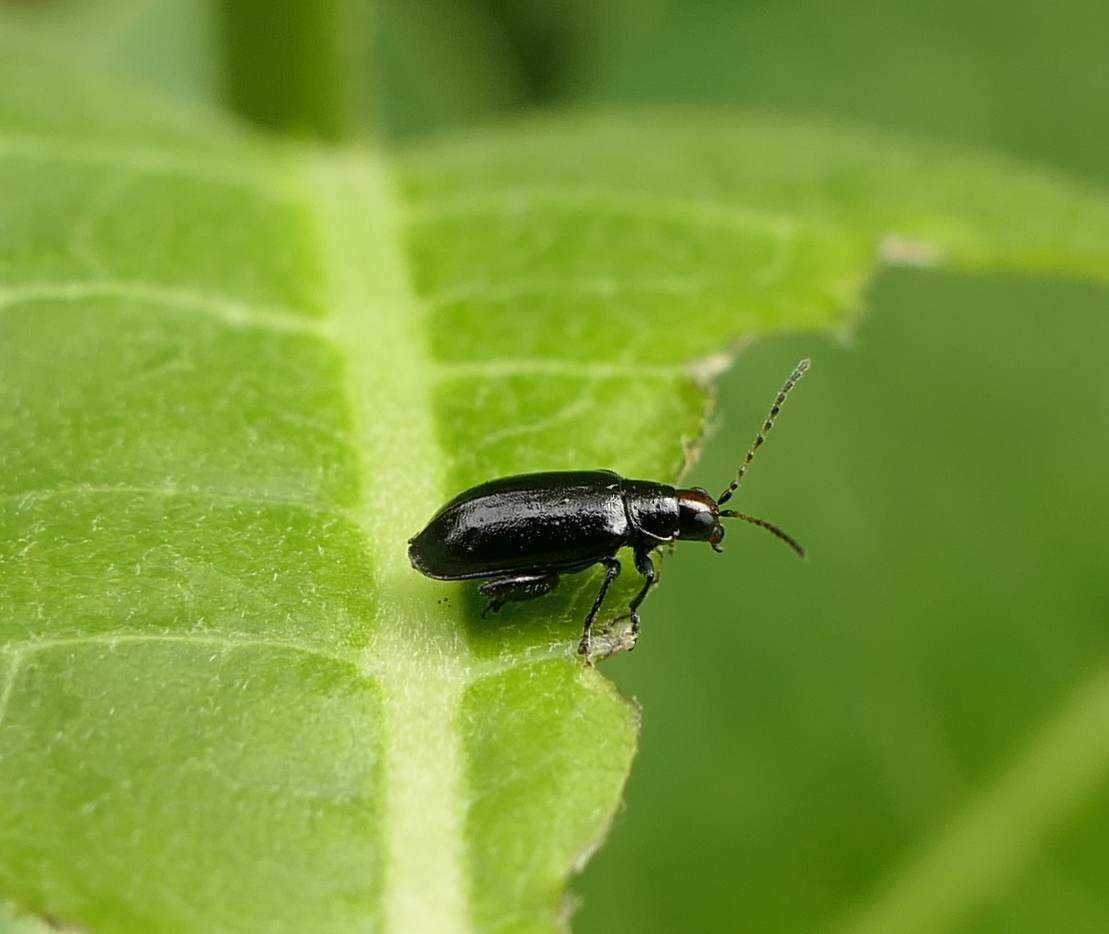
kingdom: Animalia
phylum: Arthropoda
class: Insecta
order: Coleoptera
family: Chrysomelidae
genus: Systena
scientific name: Systena frontalis
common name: Red-headed flea beetle
